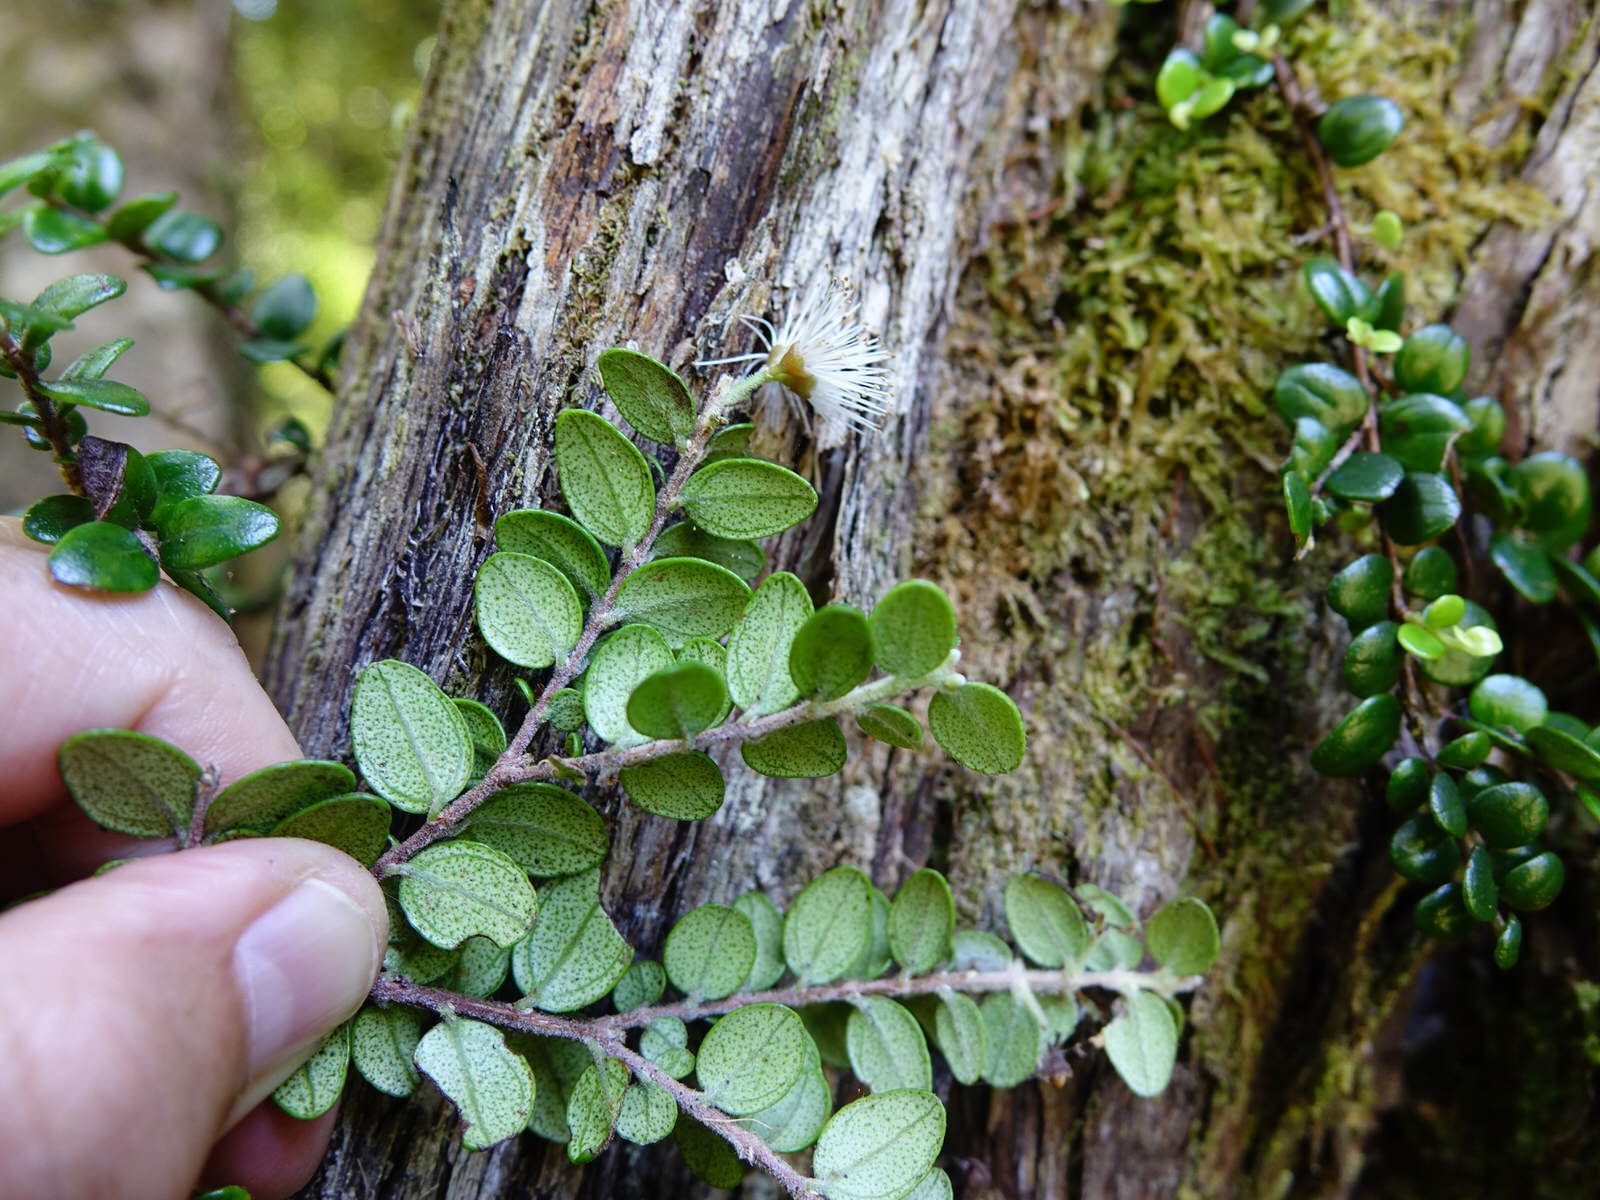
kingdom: Plantae
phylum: Tracheophyta
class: Magnoliopsida
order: Myrtales
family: Myrtaceae
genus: Metrosideros
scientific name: Metrosideros perforata
